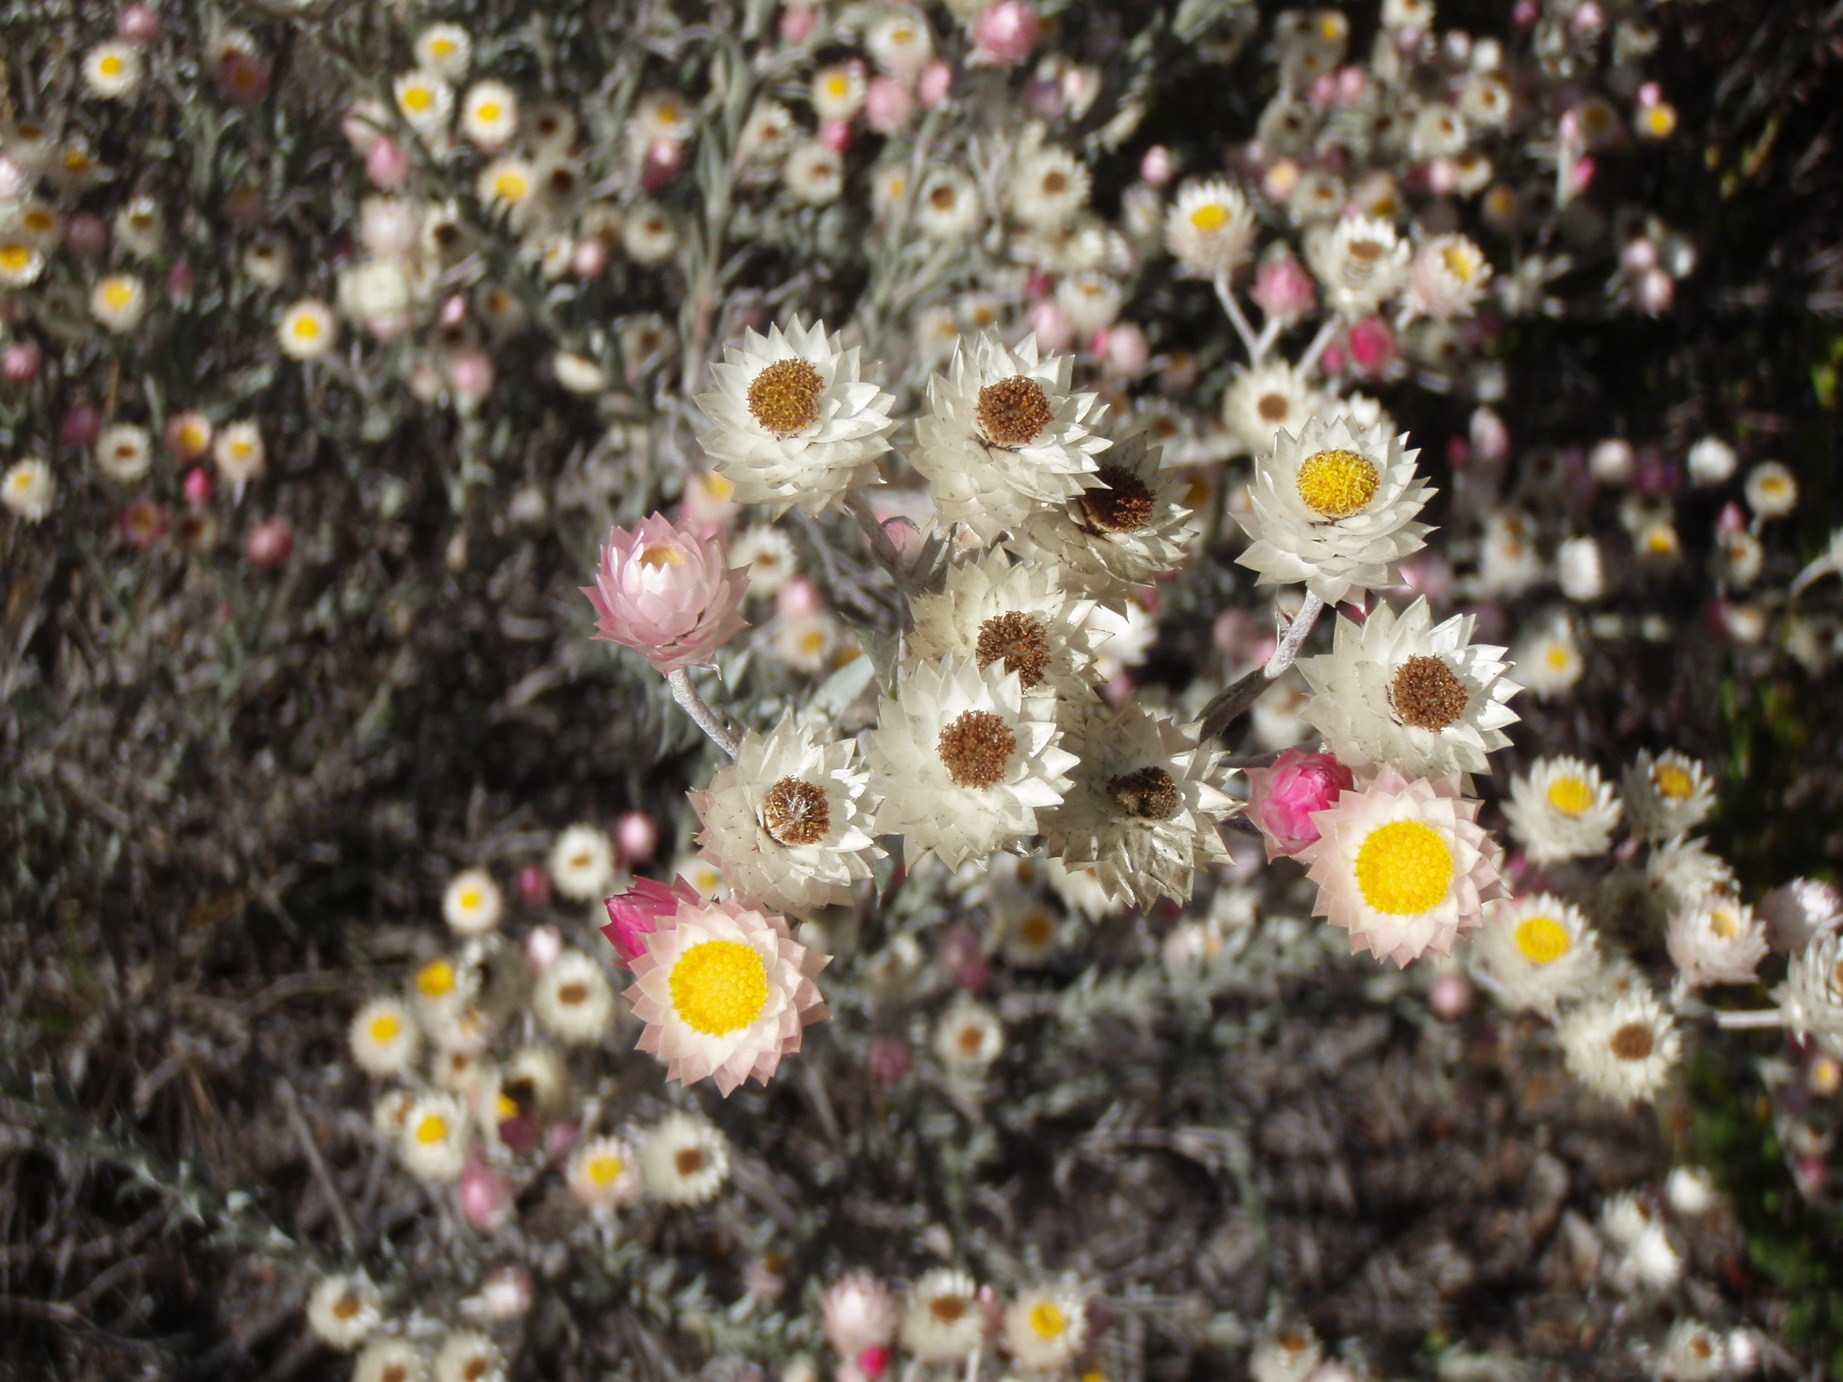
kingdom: Plantae
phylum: Tracheophyta
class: Magnoliopsida
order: Asterales
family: Asteraceae
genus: Achyranthemum
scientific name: Achyranthemum paniculatum
